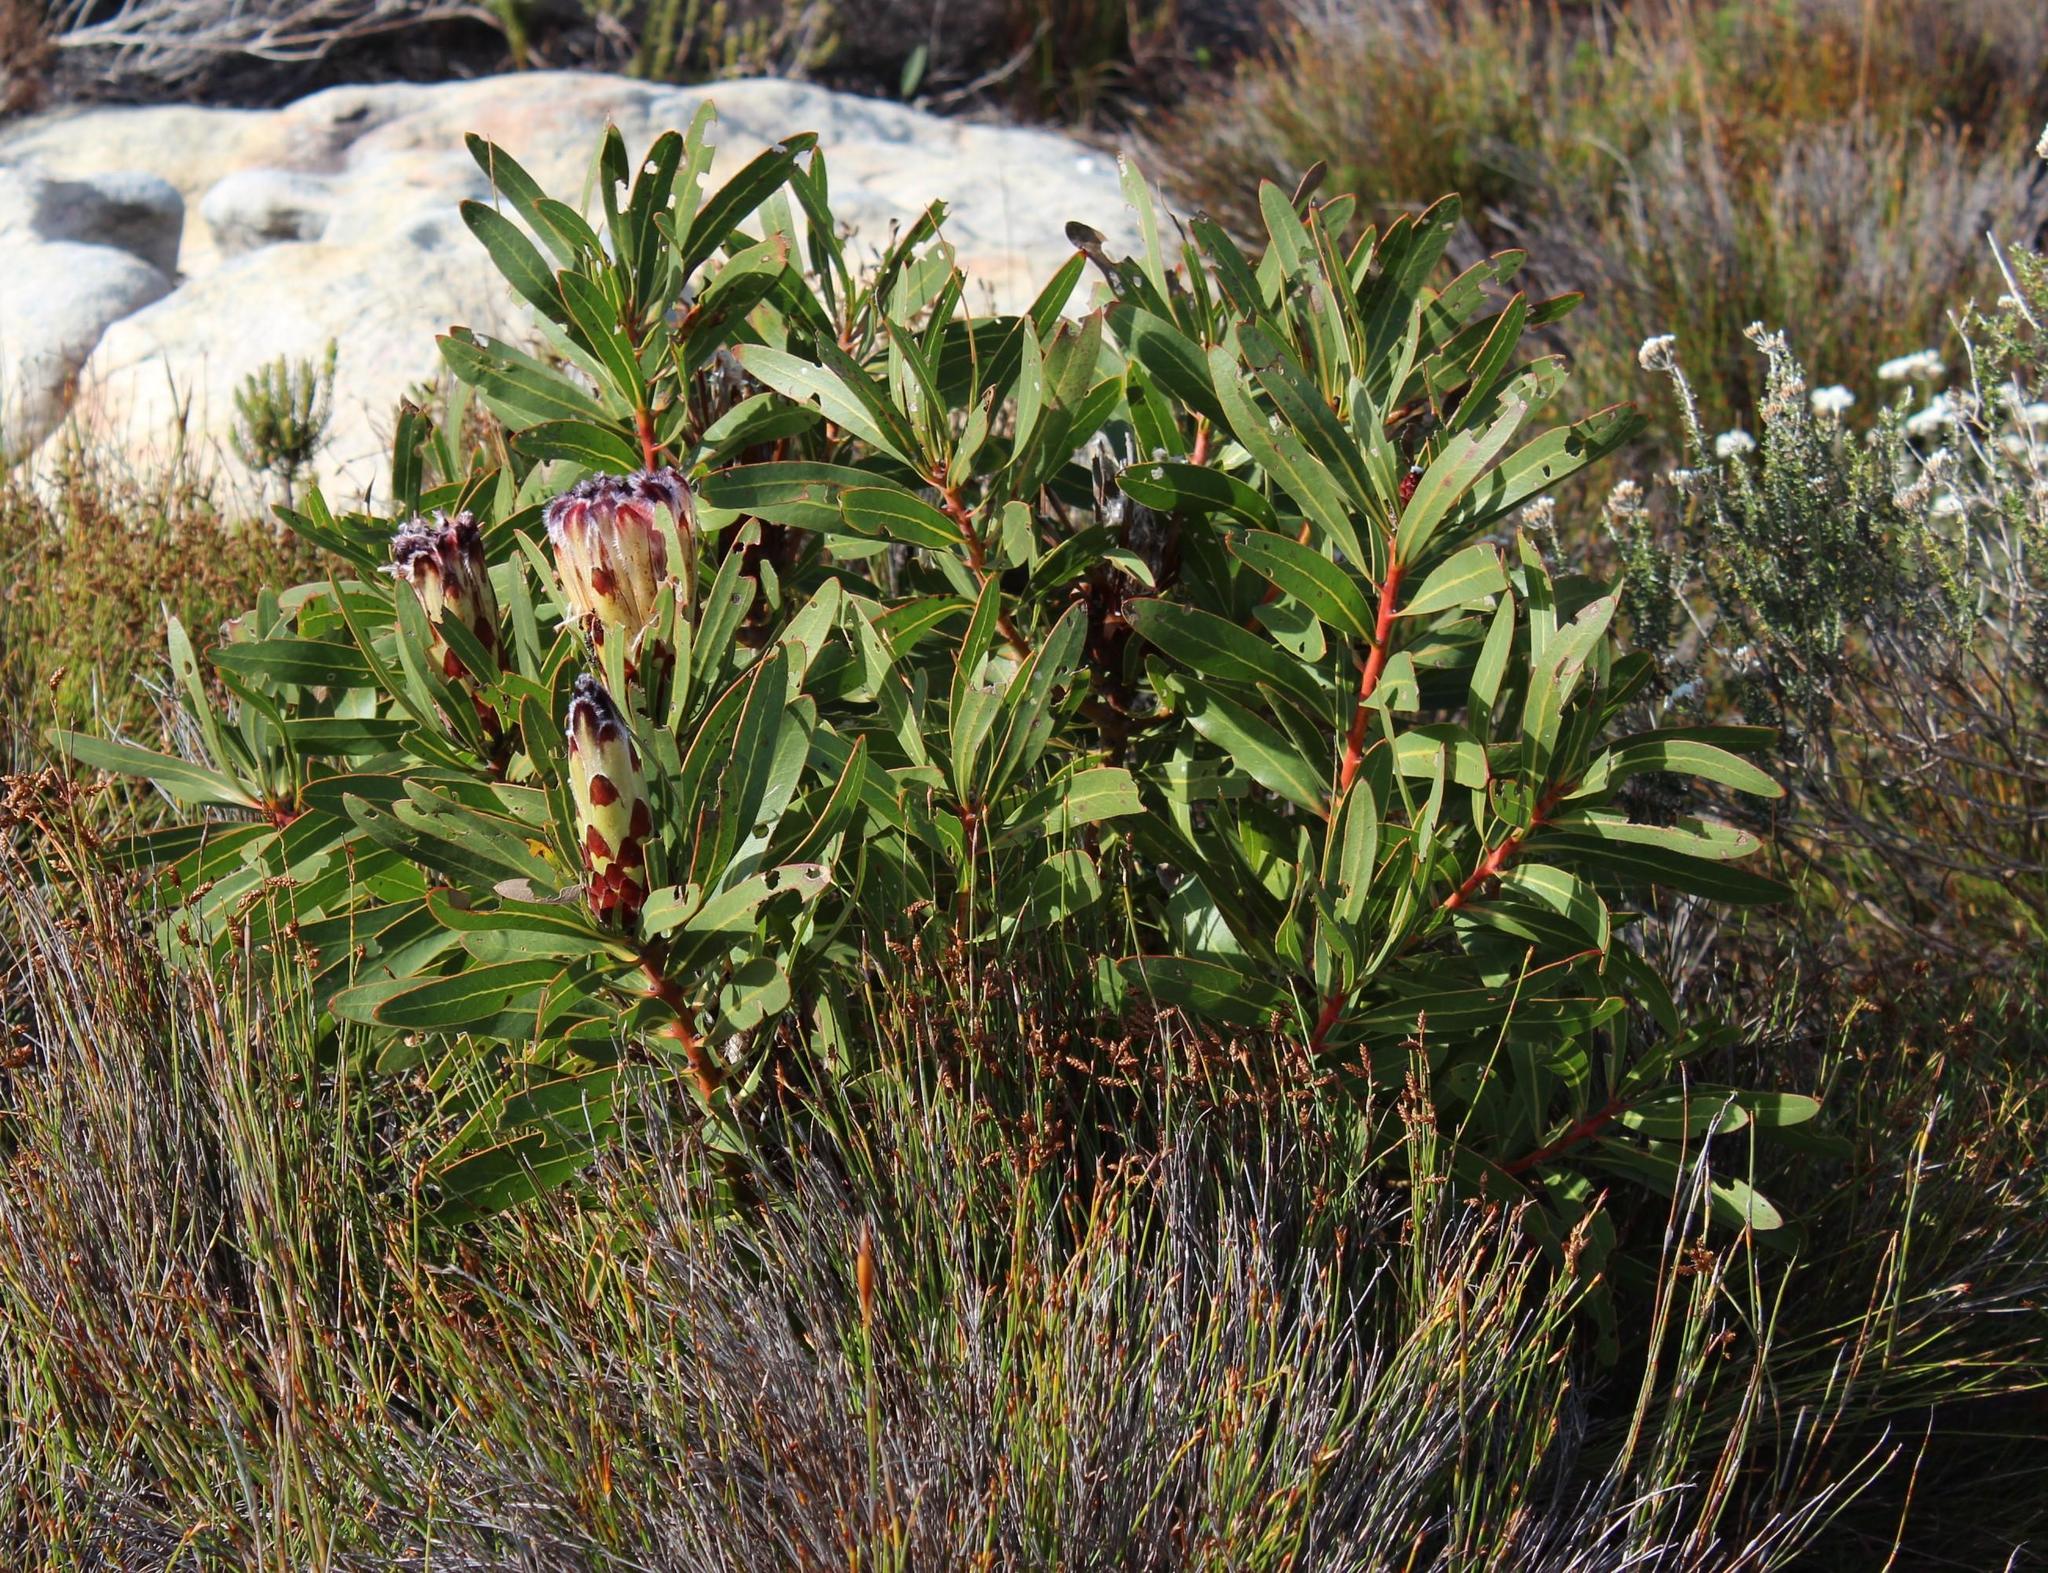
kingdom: Plantae
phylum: Tracheophyta
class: Magnoliopsida
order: Proteales
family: Proteaceae
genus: Protea
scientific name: Protea
